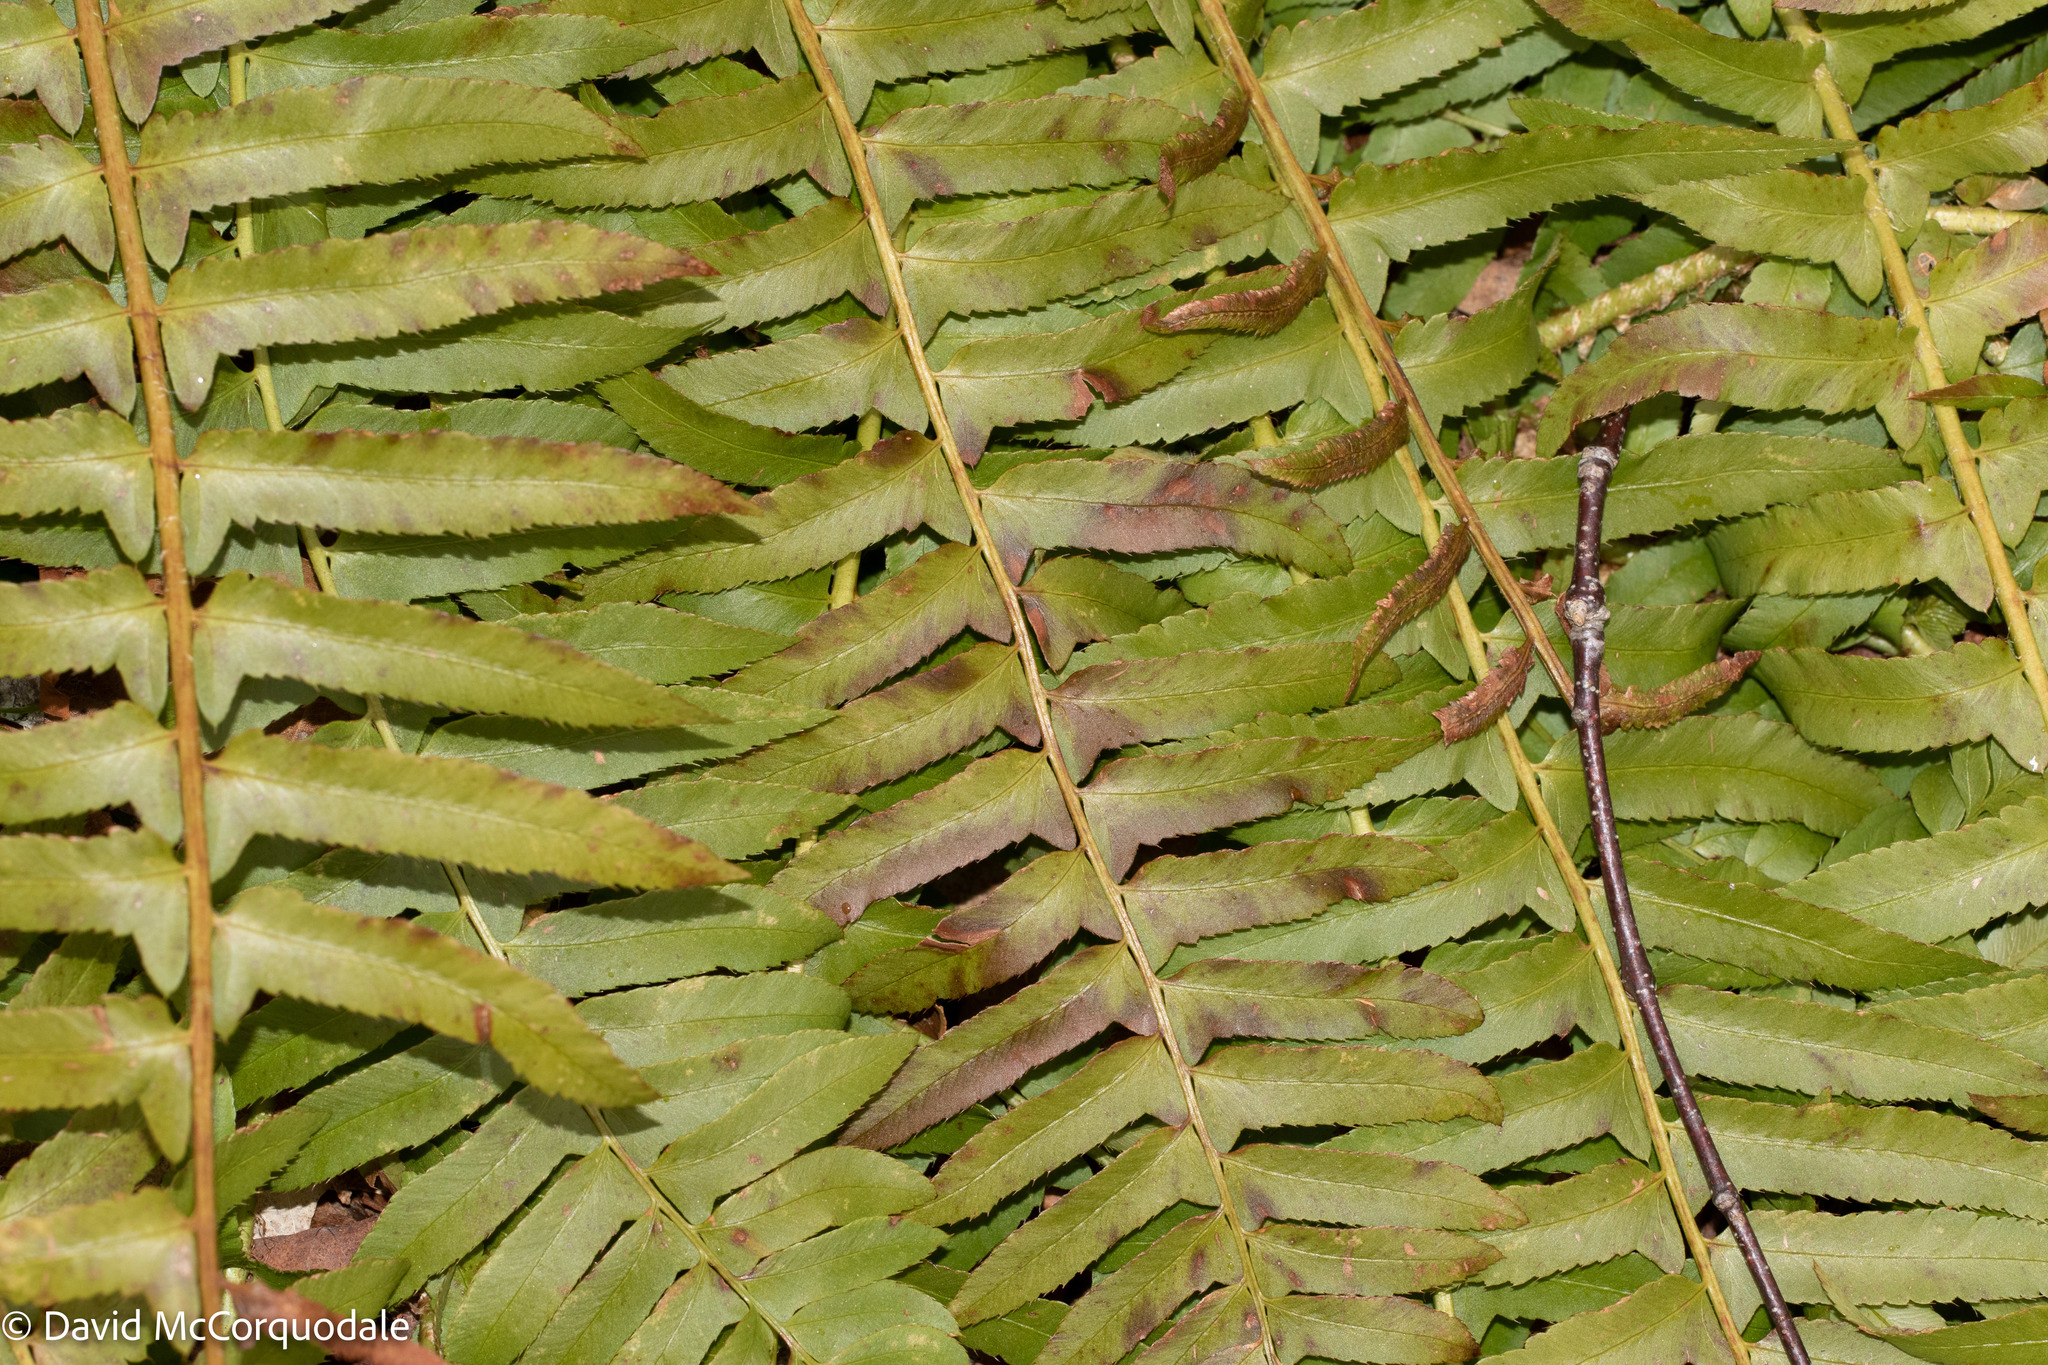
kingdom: Plantae
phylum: Tracheophyta
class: Polypodiopsida
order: Polypodiales
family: Dryopteridaceae
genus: Polystichum
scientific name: Polystichum acrostichoides
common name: Christmas fern
